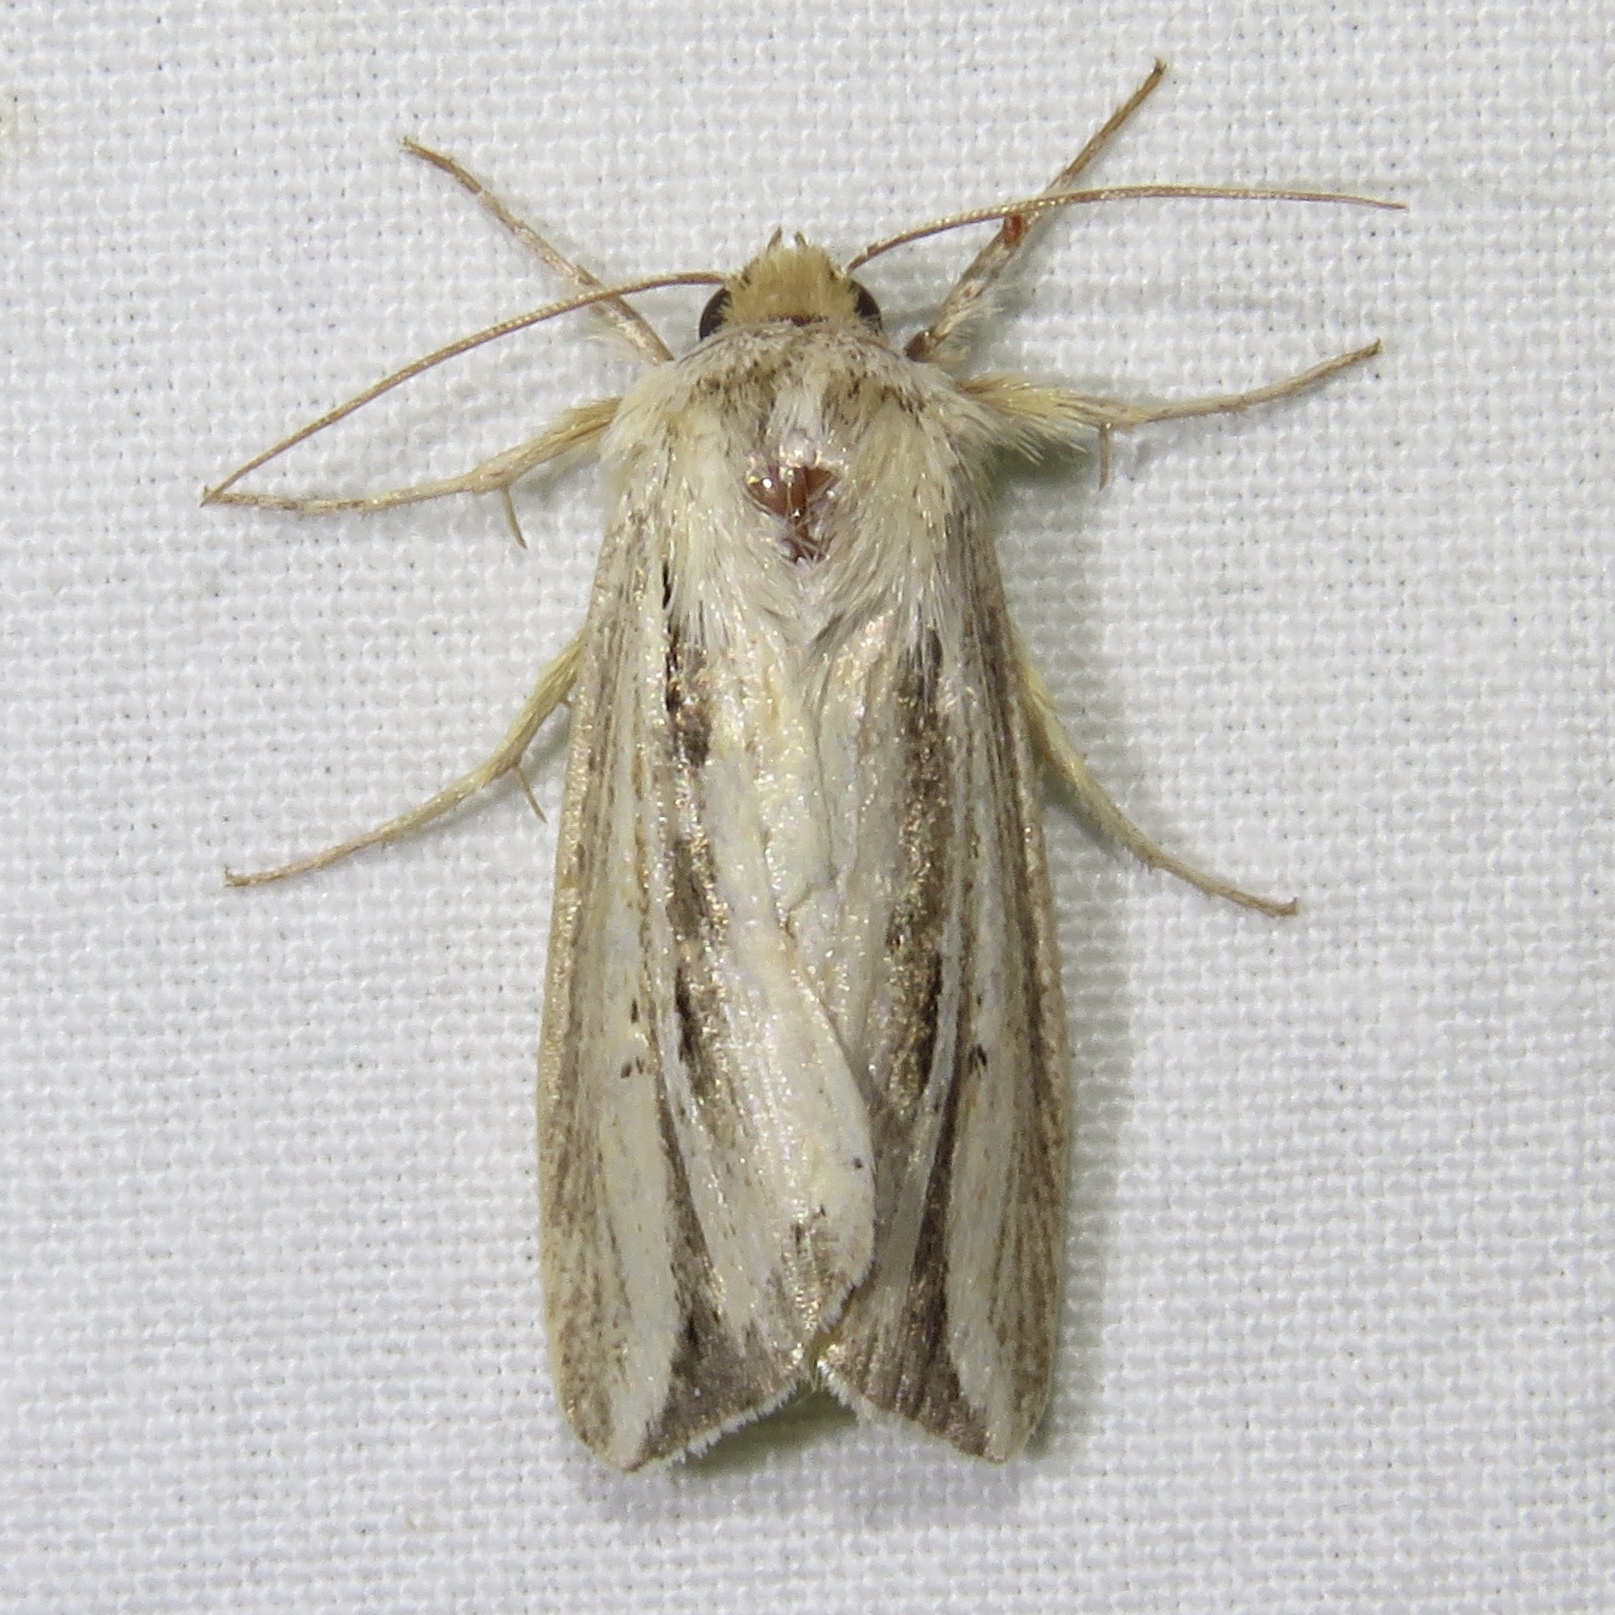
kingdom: Animalia
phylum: Arthropoda
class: Insecta
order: Lepidoptera
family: Noctuidae
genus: Dargida
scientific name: Dargida diffusa
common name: Wheat head armyworm
